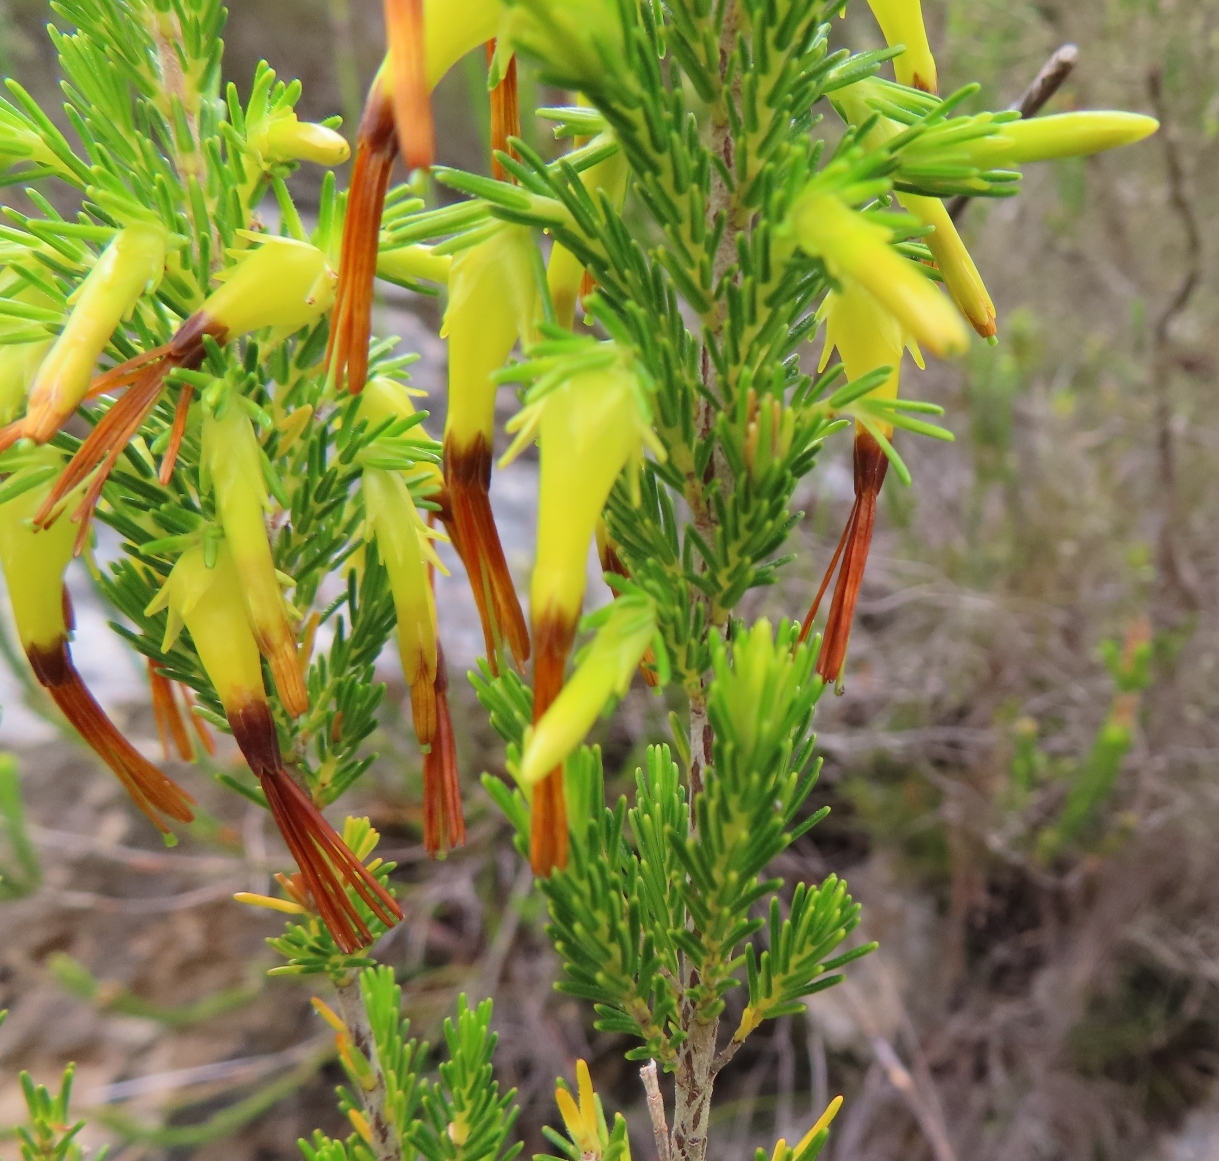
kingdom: Plantae
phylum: Tracheophyta
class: Magnoliopsida
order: Ericales
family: Ericaceae
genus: Erica
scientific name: Erica melastoma
